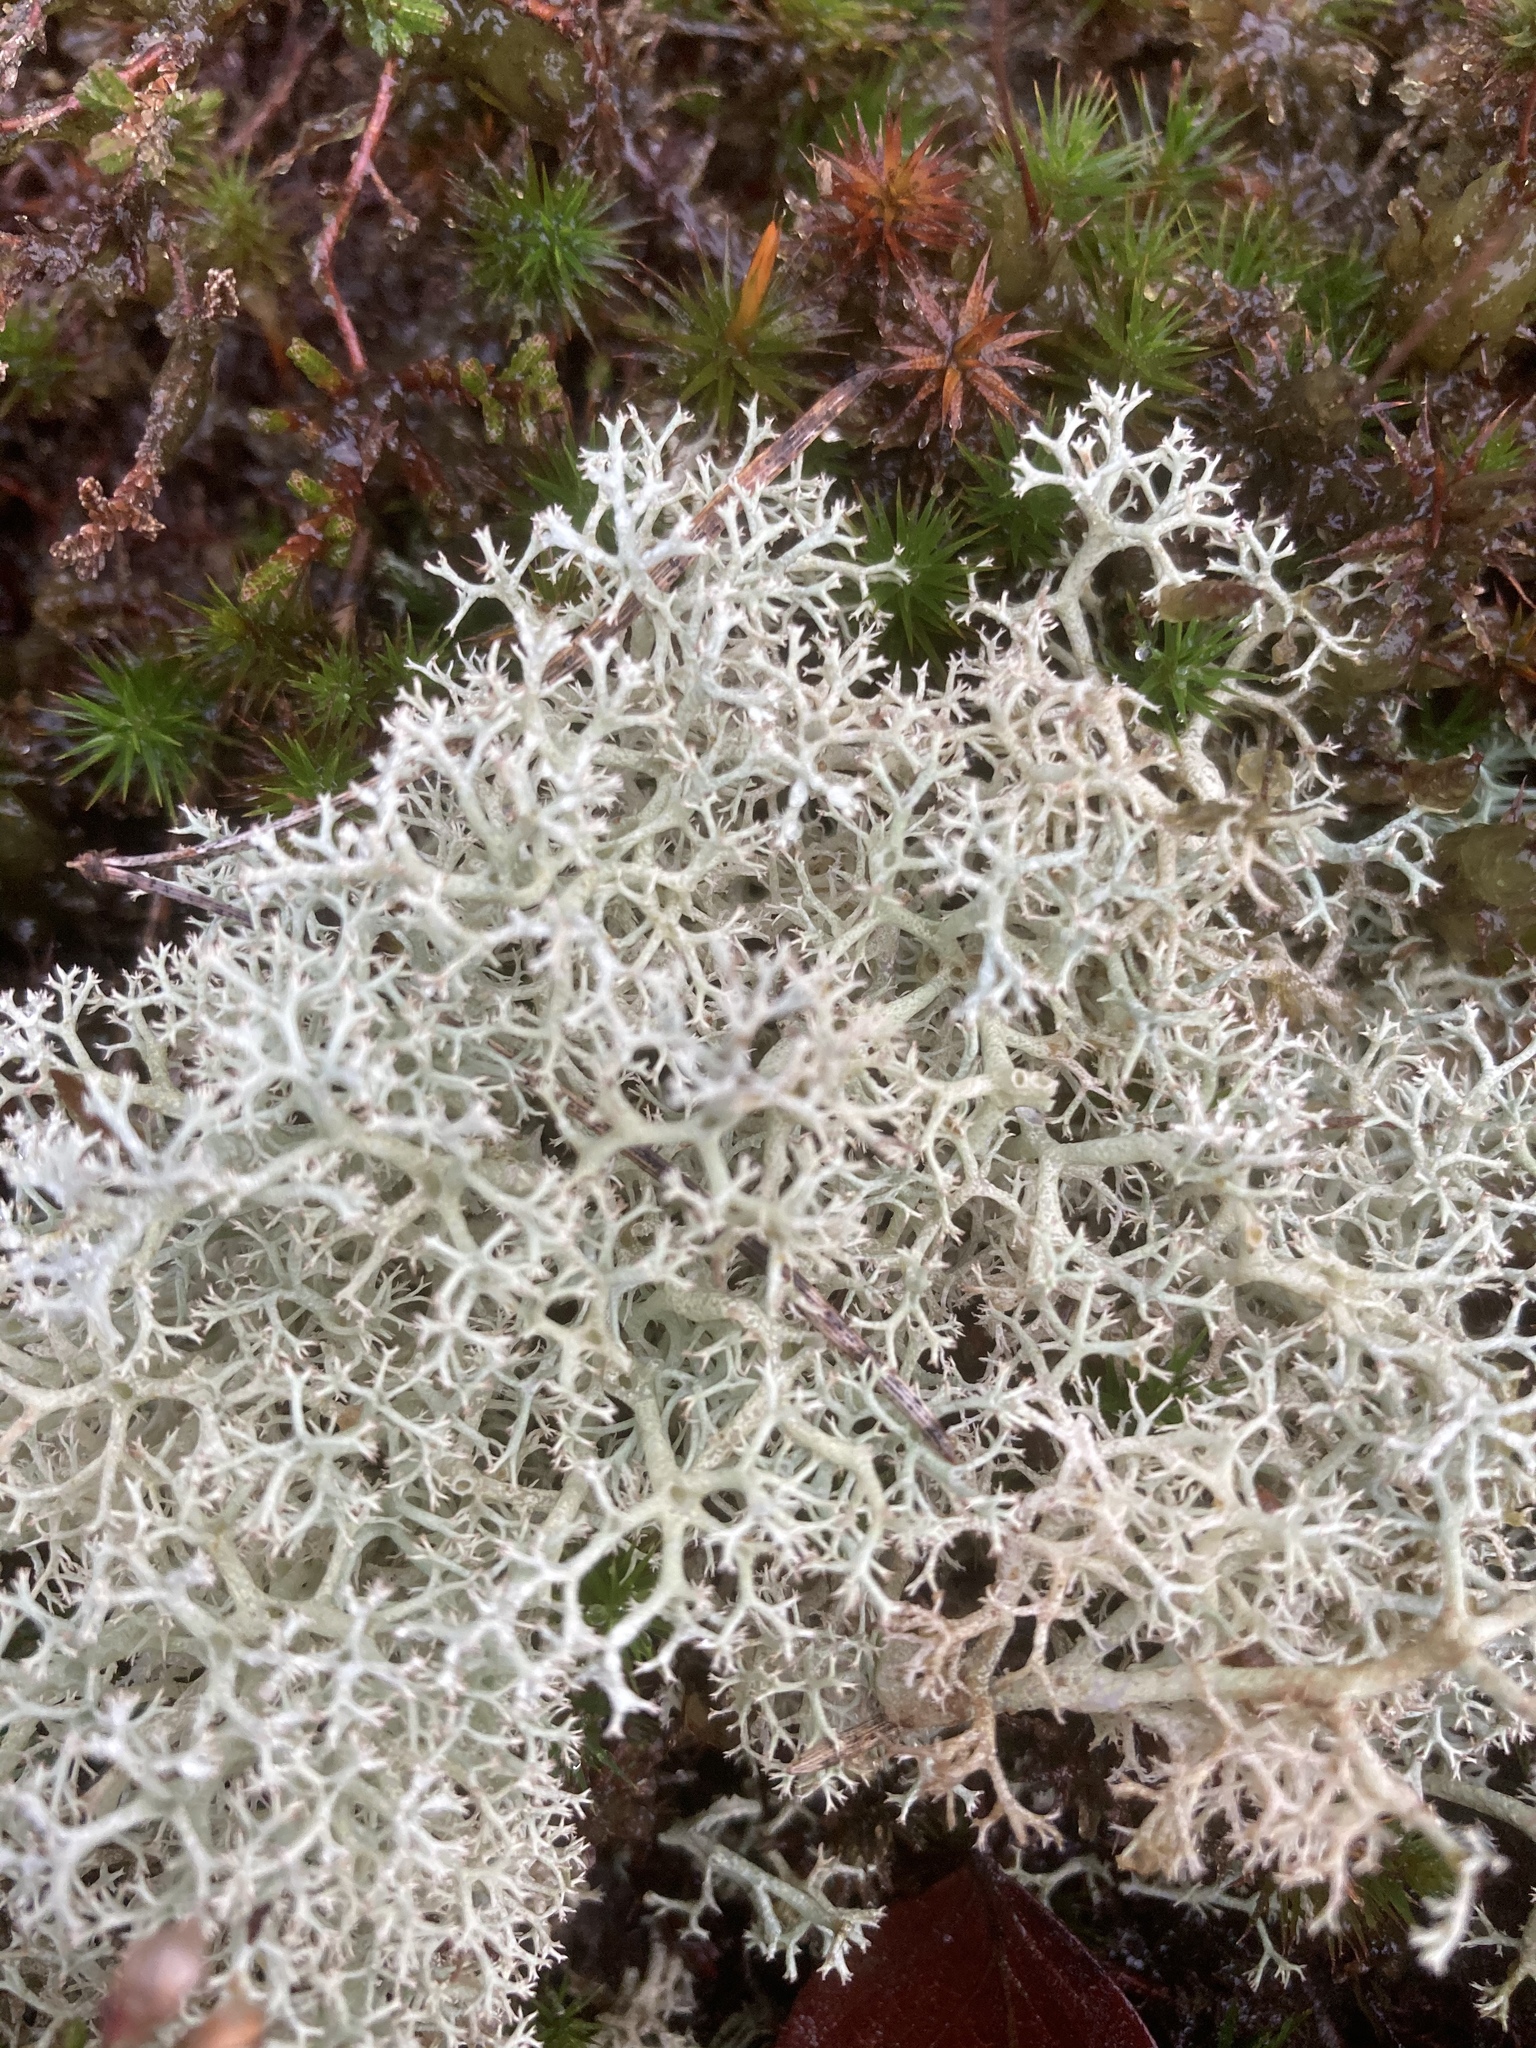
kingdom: Fungi
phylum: Ascomycota
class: Lecanoromycetes
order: Lecanorales
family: Cladoniaceae
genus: Cladonia
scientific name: Cladonia portentosa
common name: Reindeer lichen
